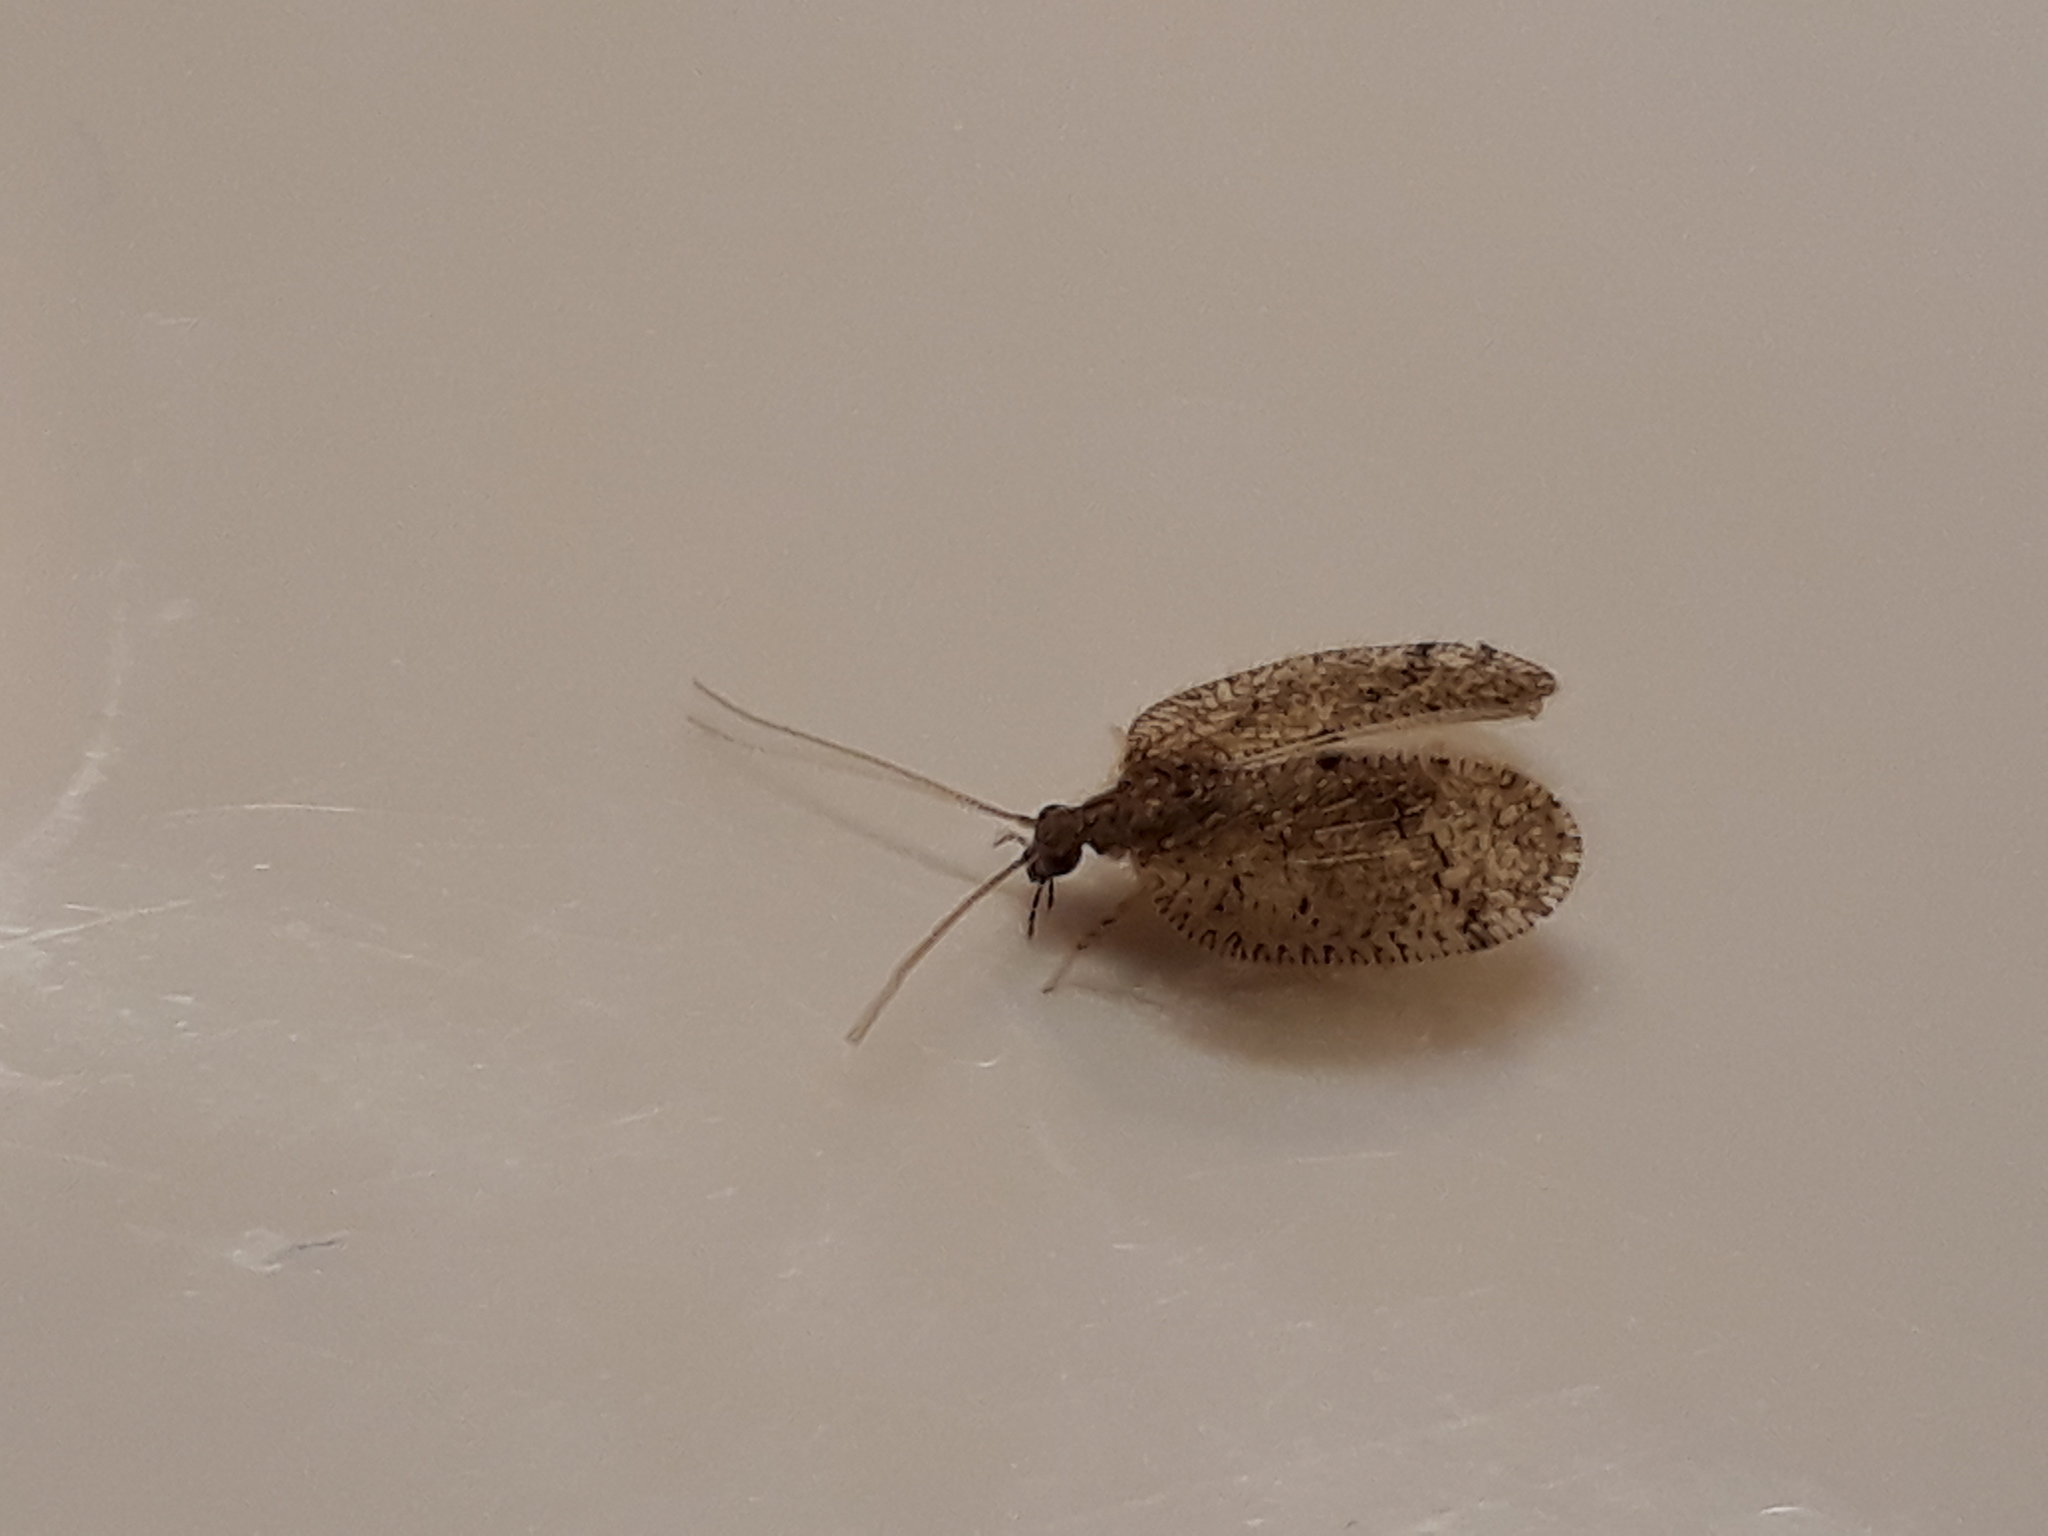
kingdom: Animalia
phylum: Arthropoda
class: Insecta
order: Neuroptera
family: Hemerobiidae
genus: Psectra
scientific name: Psectra nakaharai
